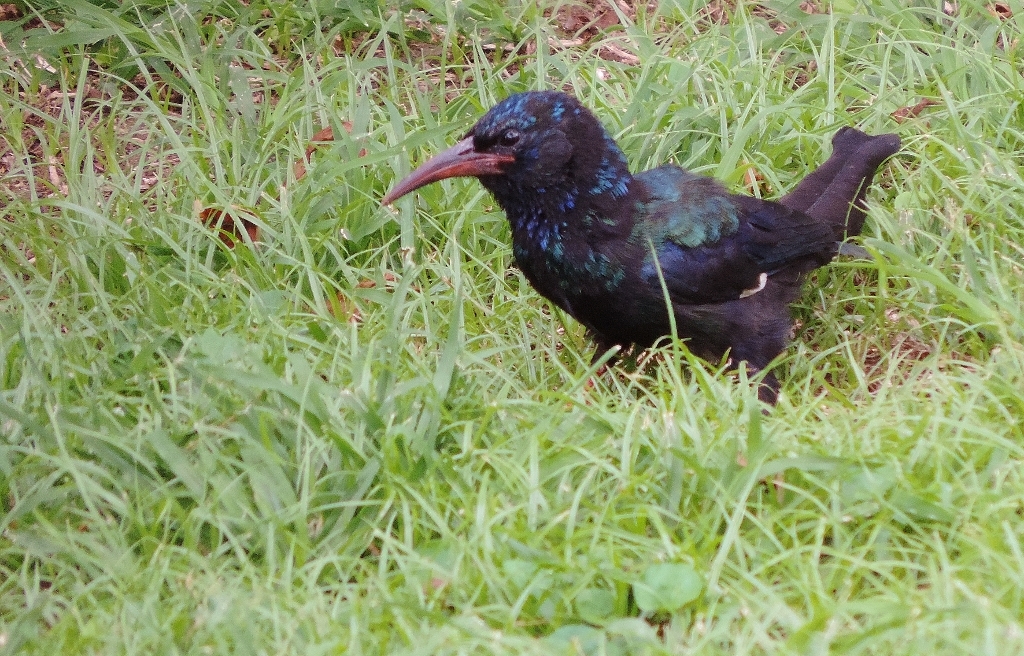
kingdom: Animalia
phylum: Chordata
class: Aves
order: Bucerotiformes
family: Phoeniculidae
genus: Phoeniculus
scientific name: Phoeniculus purpureus
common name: Green woodhoopoe
